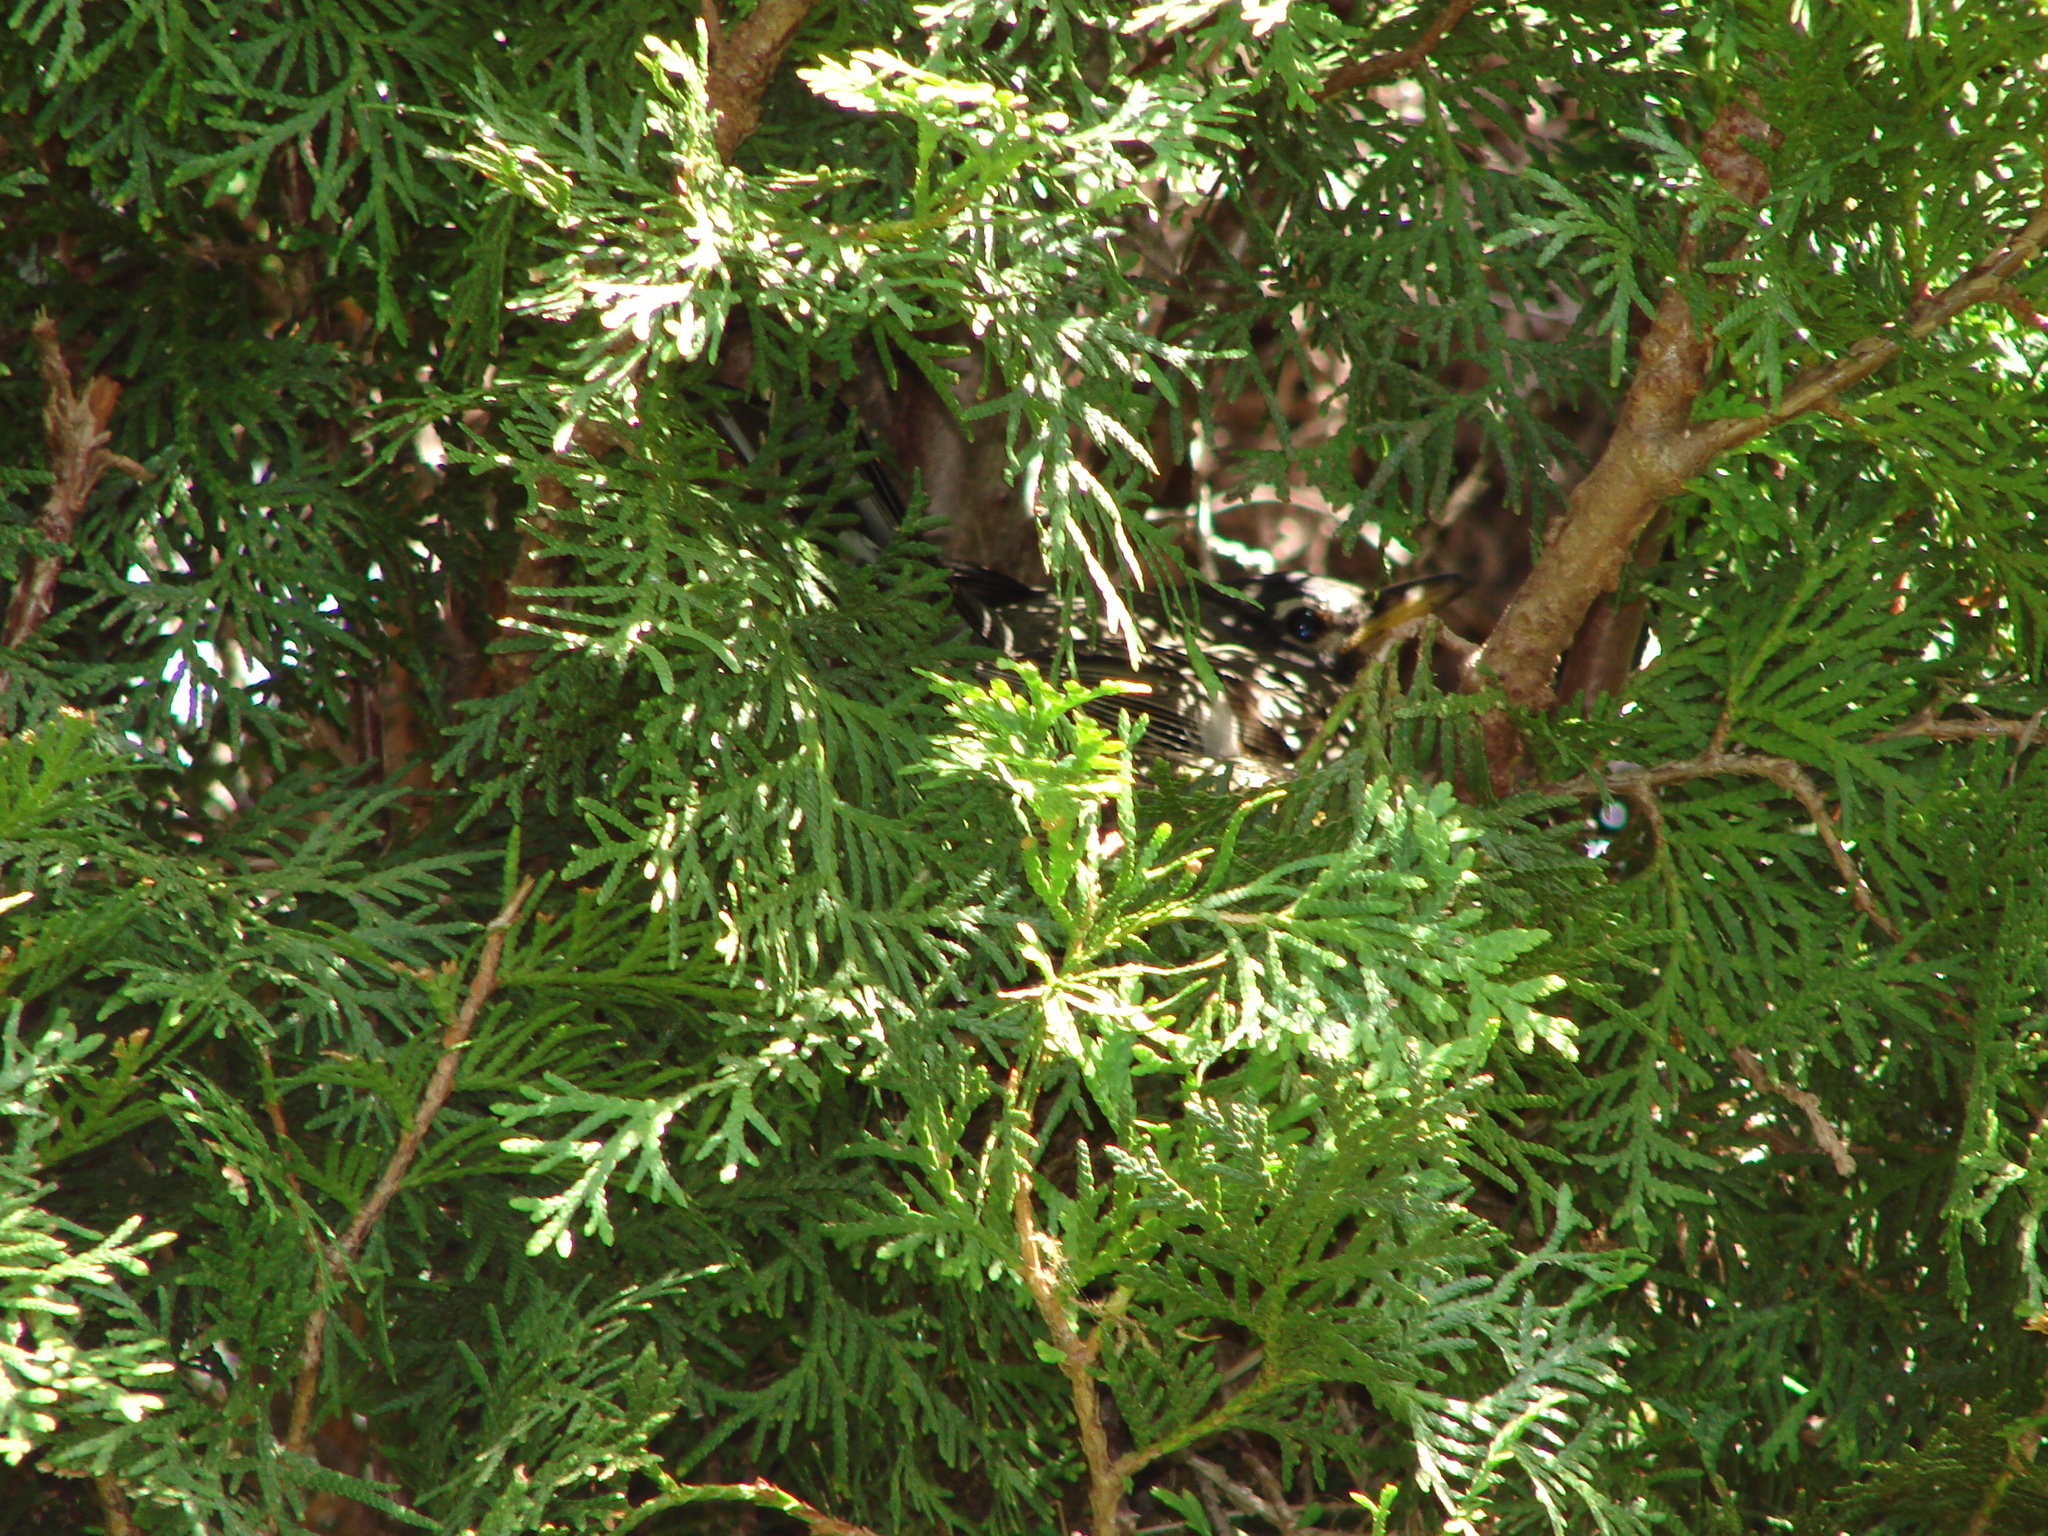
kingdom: Animalia
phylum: Chordata
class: Aves
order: Passeriformes
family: Turdidae
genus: Turdus
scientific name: Turdus migratorius
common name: American robin
